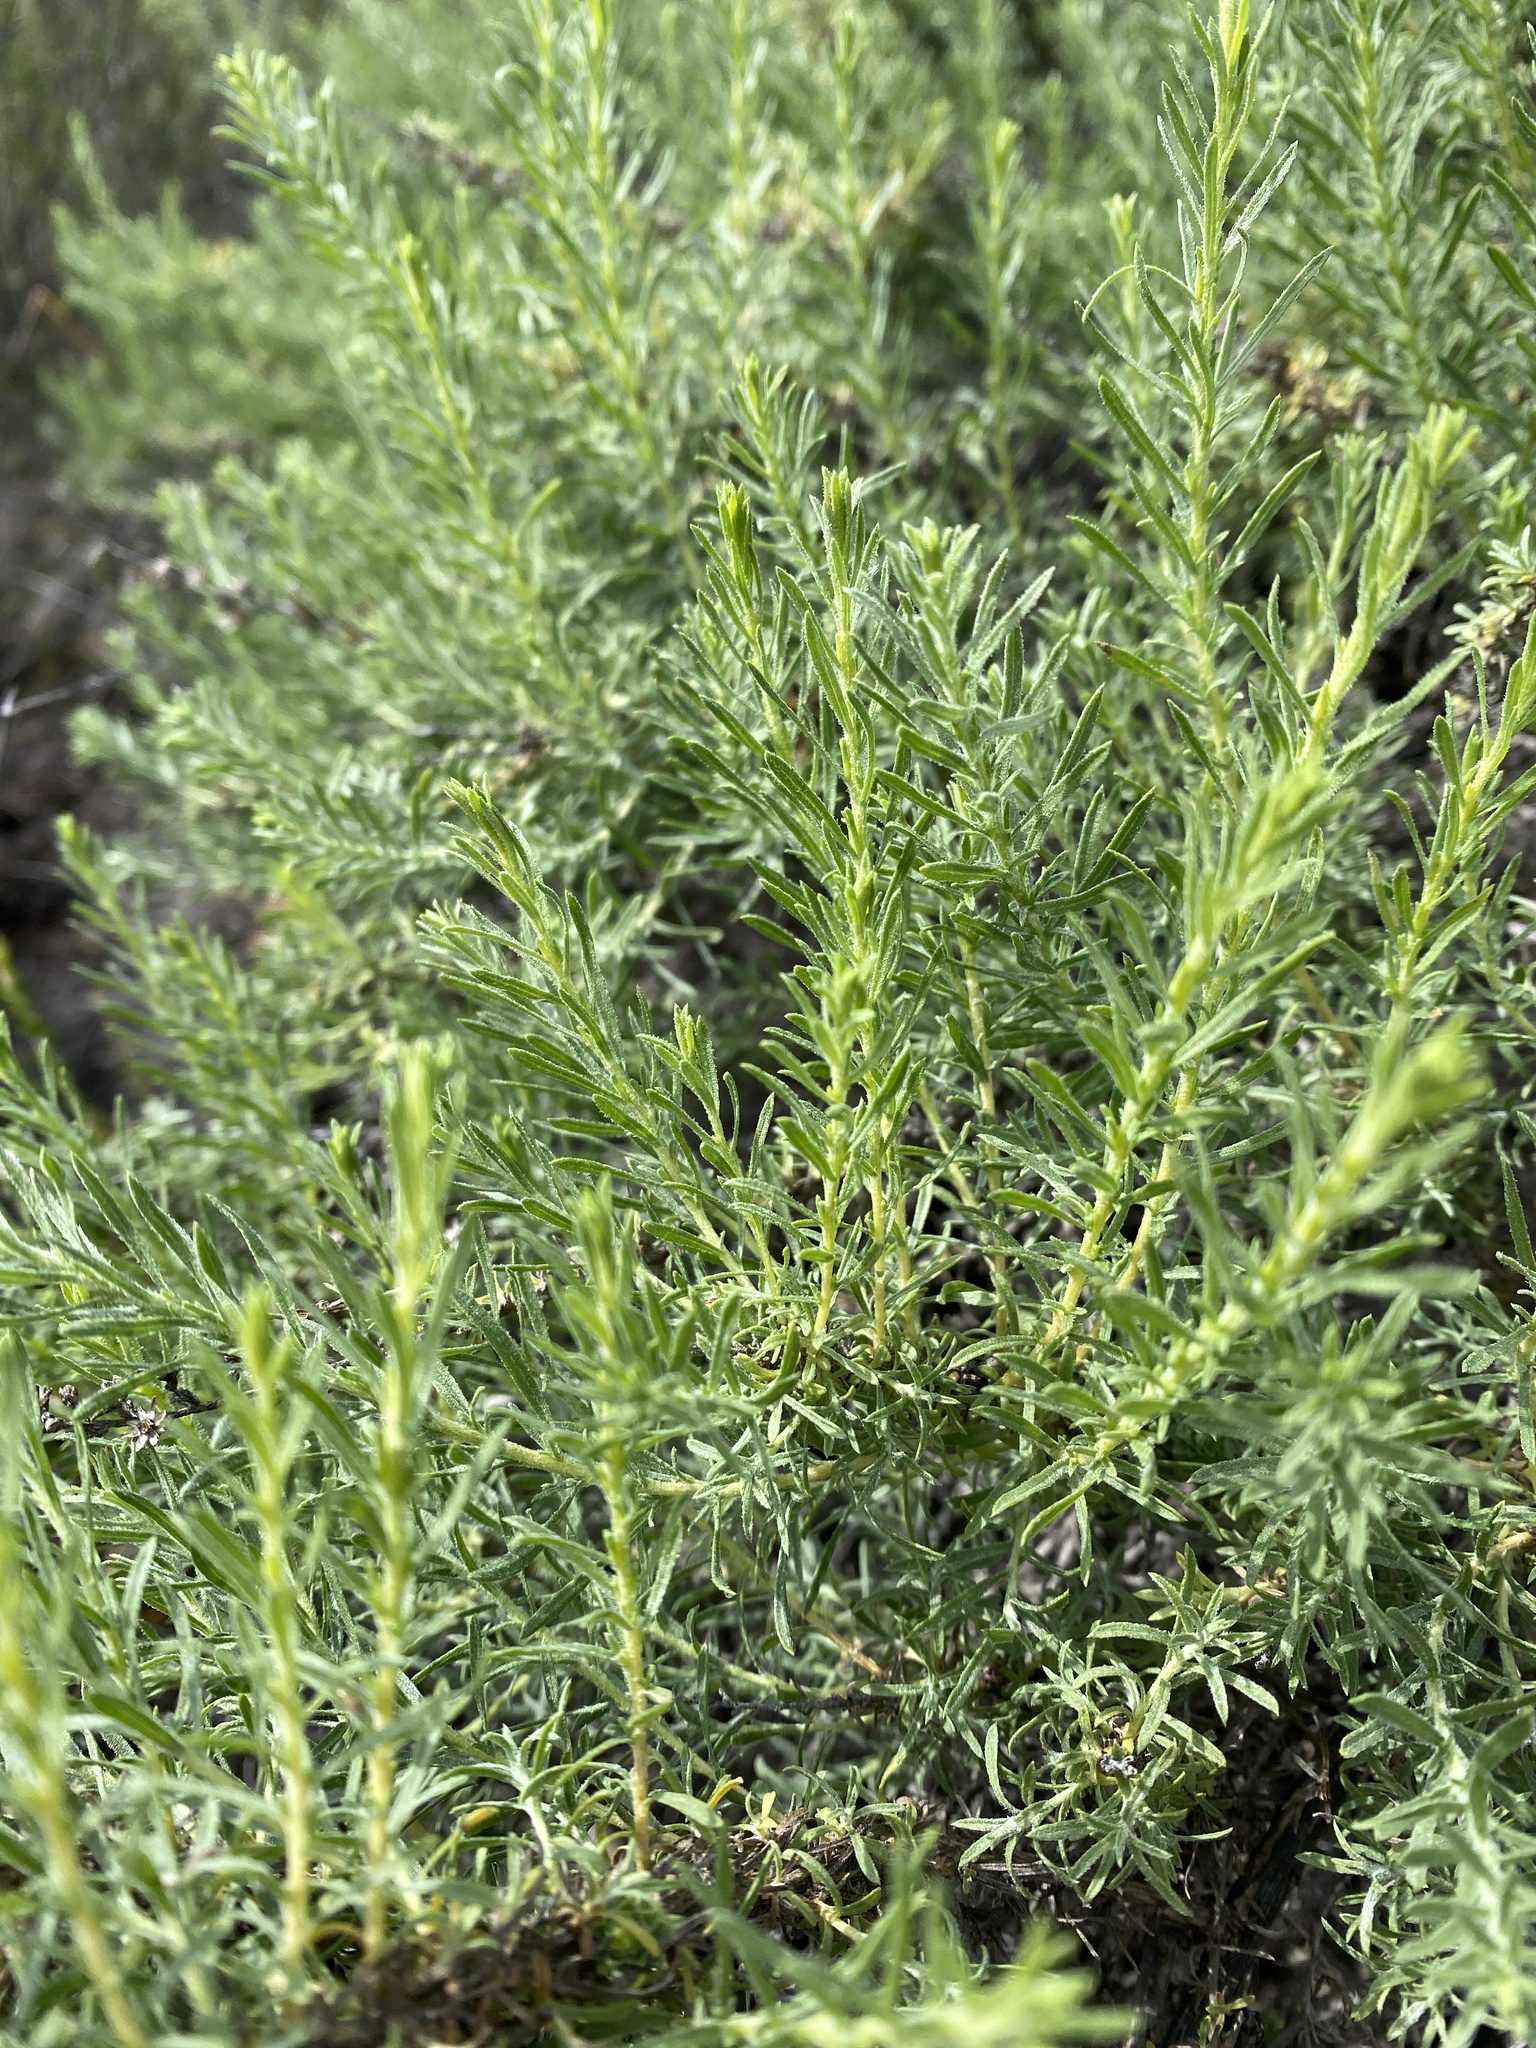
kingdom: Plantae
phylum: Tracheophyta
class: Magnoliopsida
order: Asterales
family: Asteraceae
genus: Ericameria
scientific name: Ericameria palmeri
